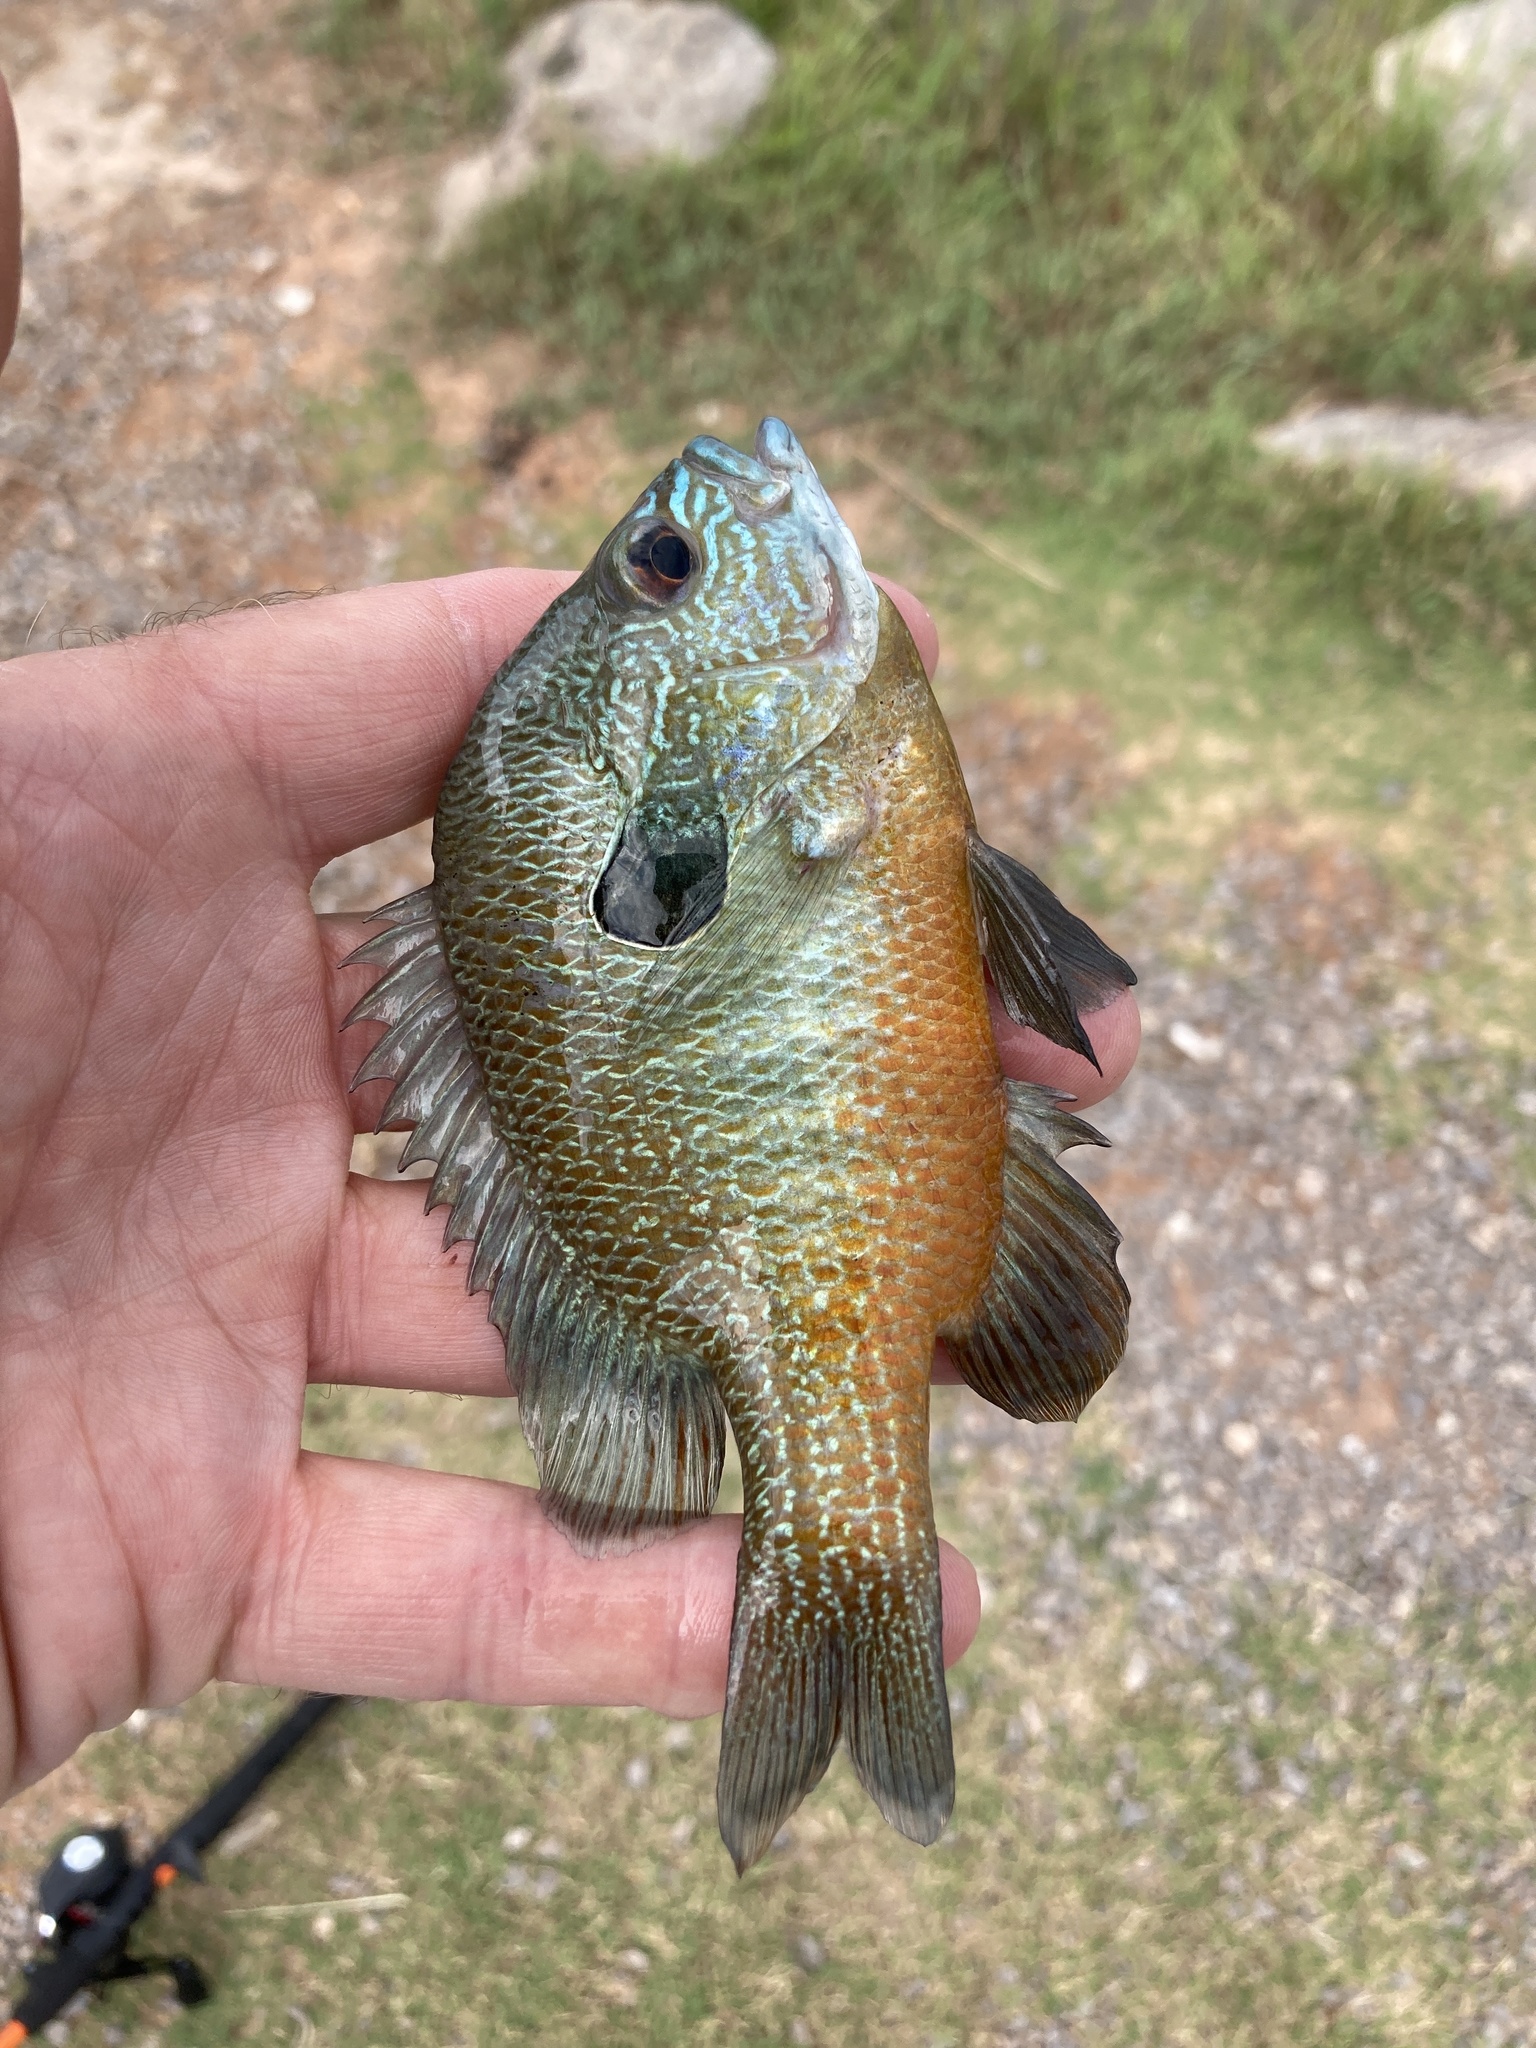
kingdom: Animalia
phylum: Chordata
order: Perciformes
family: Centrarchidae
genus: Lepomis
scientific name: Lepomis megalotis
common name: Longear sunfish
